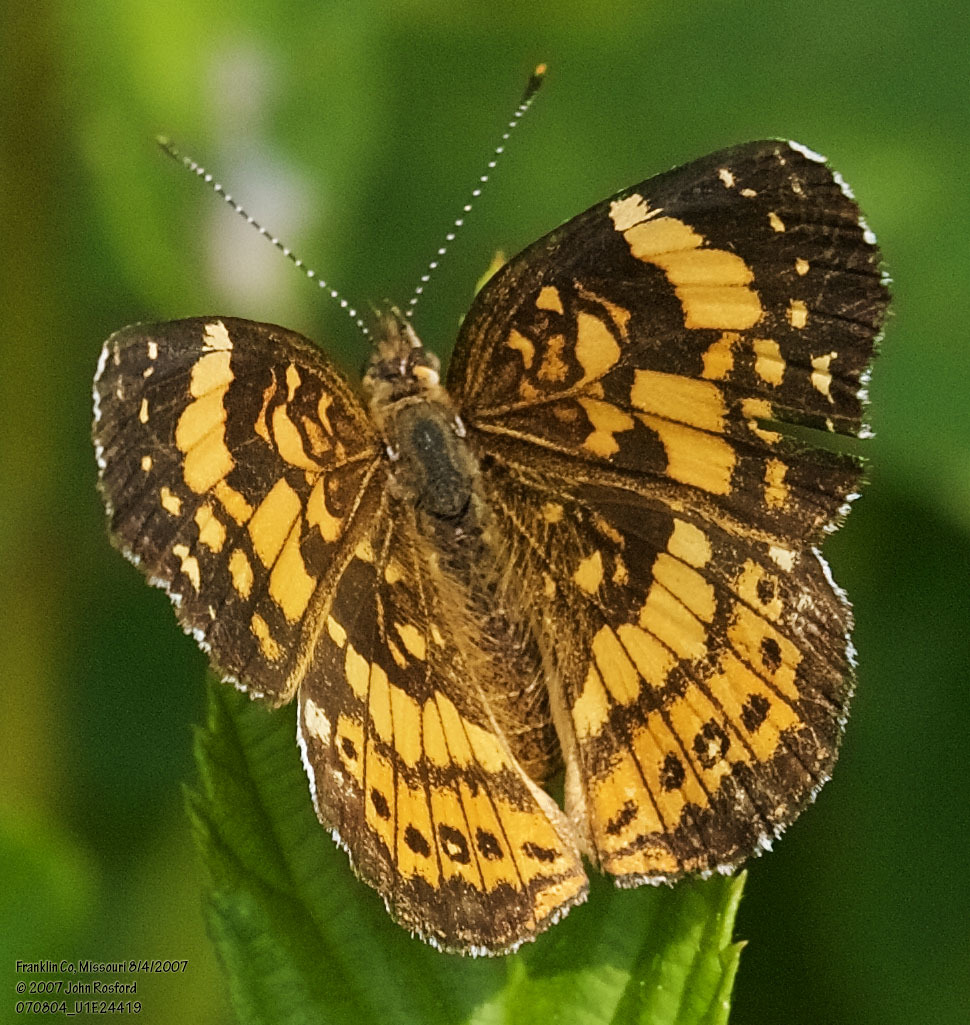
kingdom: Animalia
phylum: Arthropoda
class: Insecta
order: Lepidoptera
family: Nymphalidae
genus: Chlosyne
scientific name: Chlosyne nycteis
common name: Silvery checkerspot
